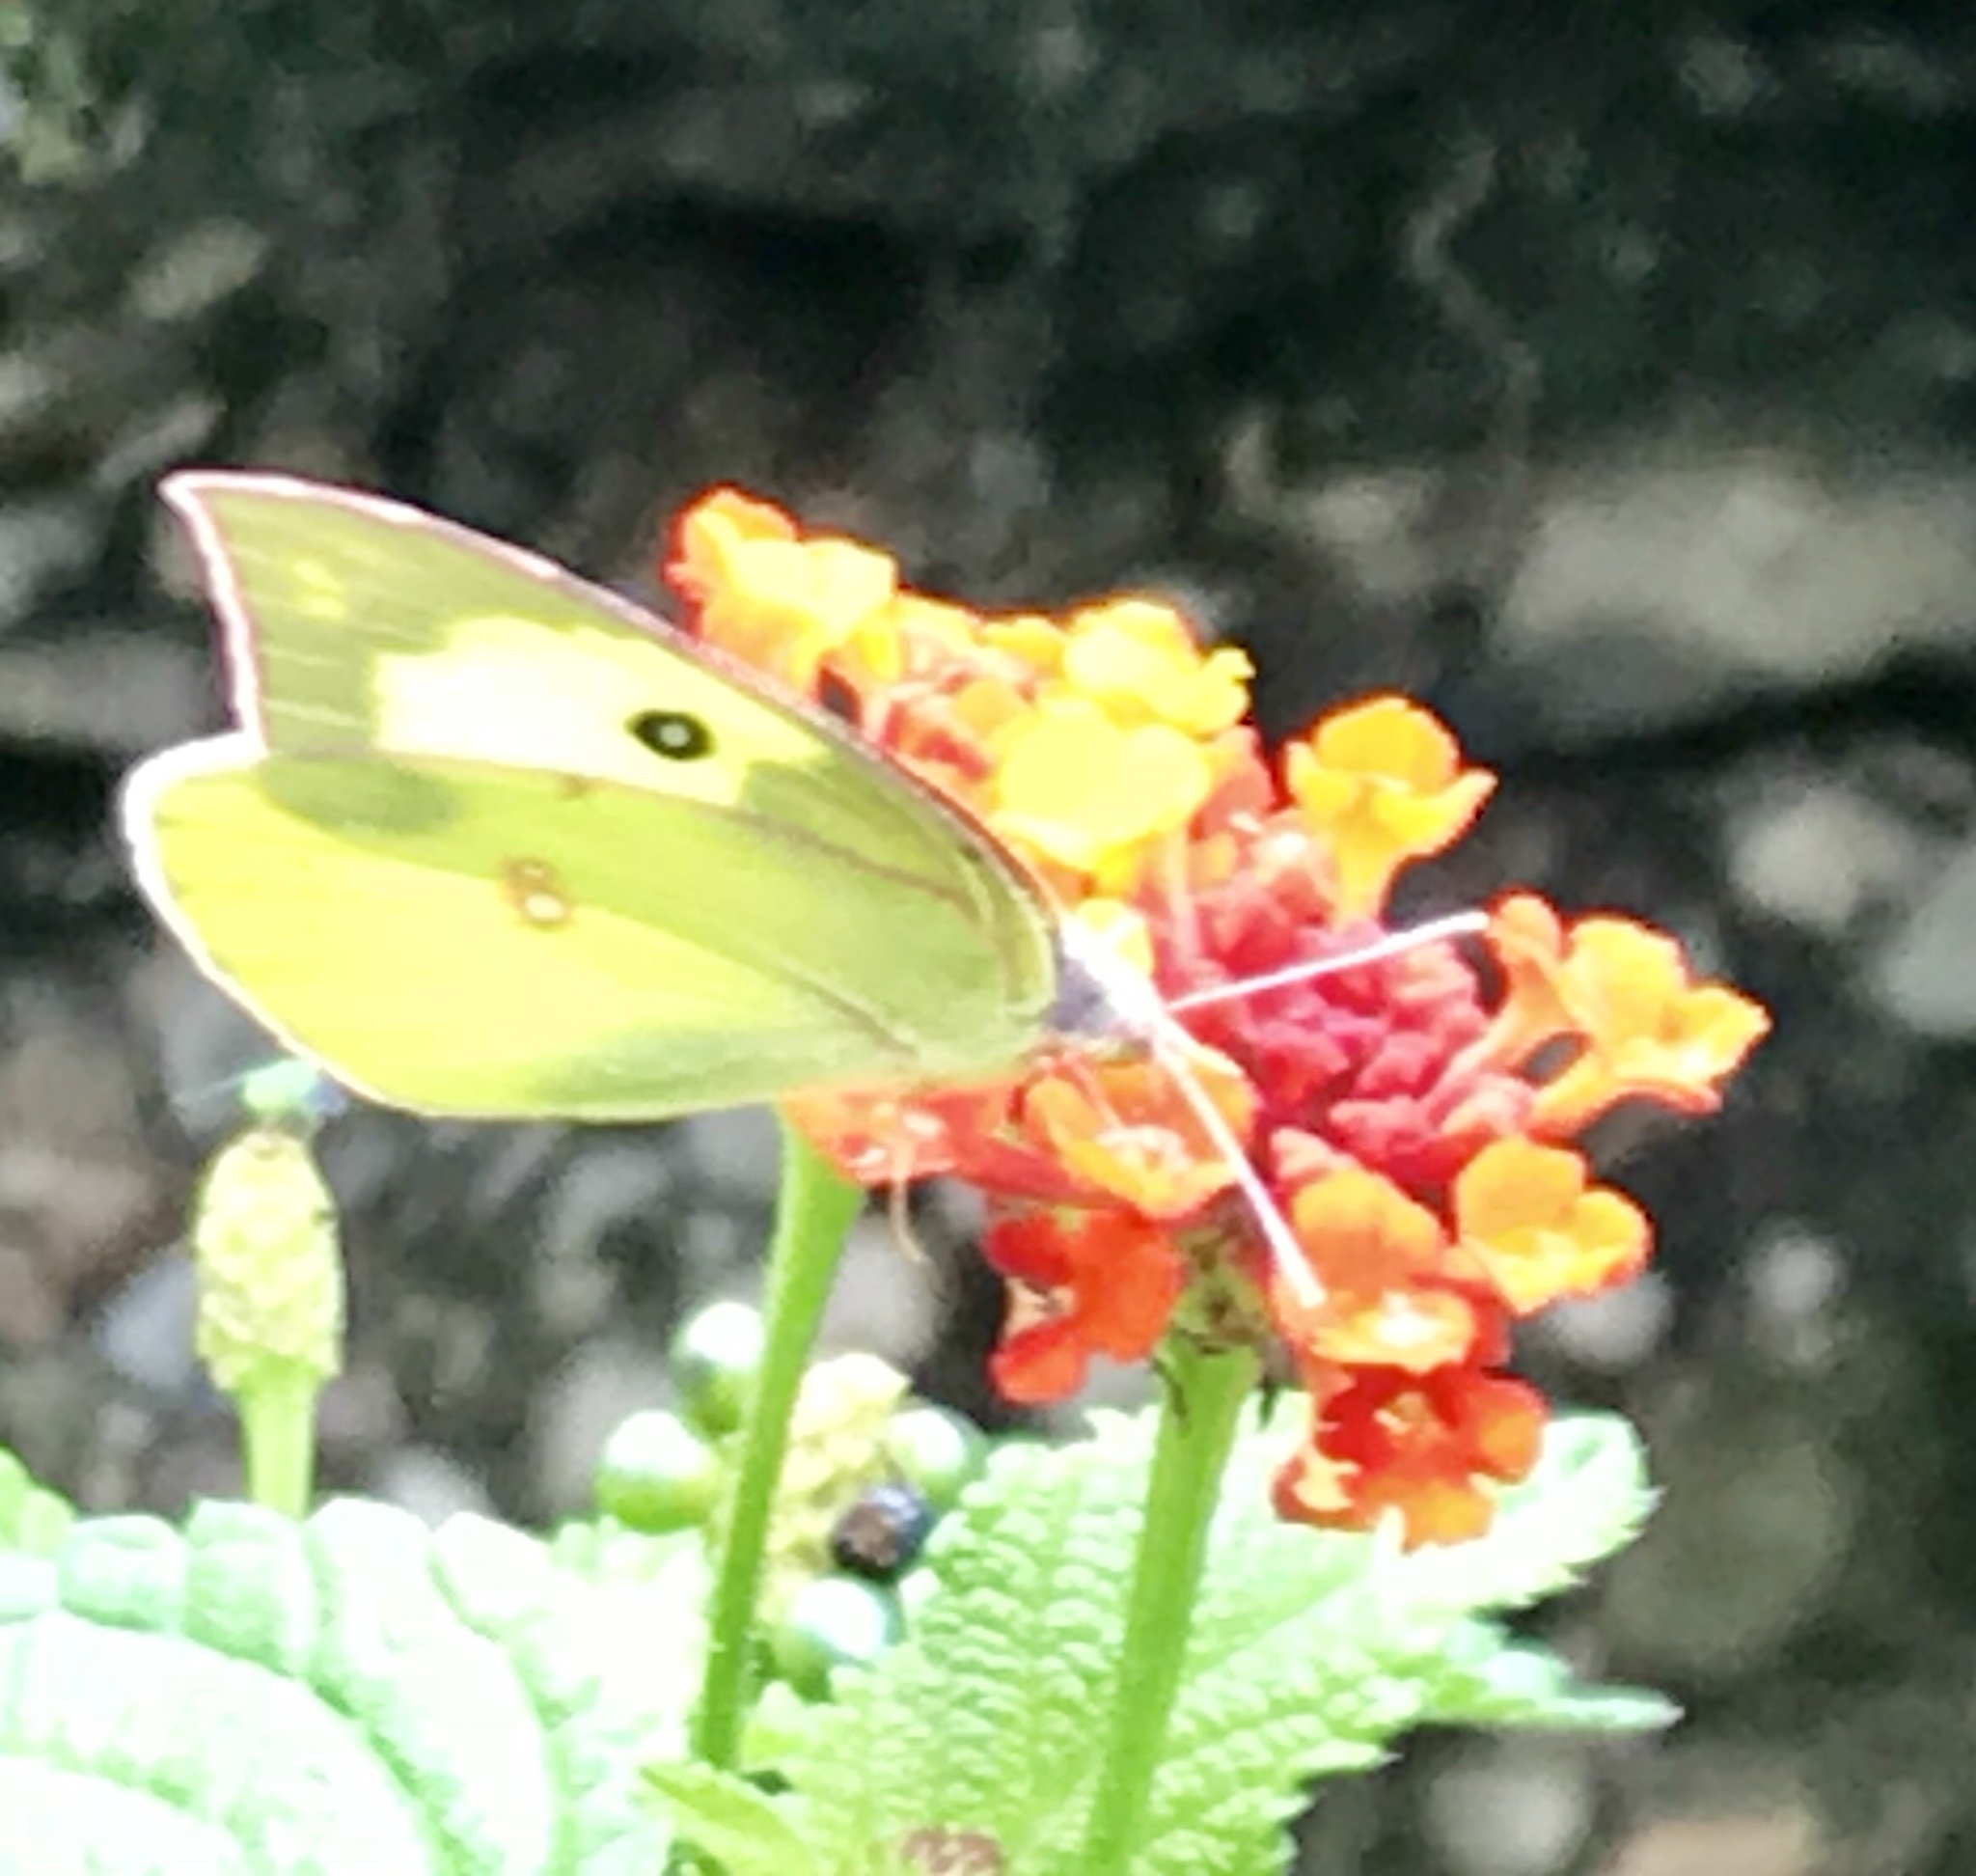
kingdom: Animalia
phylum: Arthropoda
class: Insecta
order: Lepidoptera
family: Pieridae
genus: Zerene
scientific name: Zerene cesonia
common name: Southern dogface
